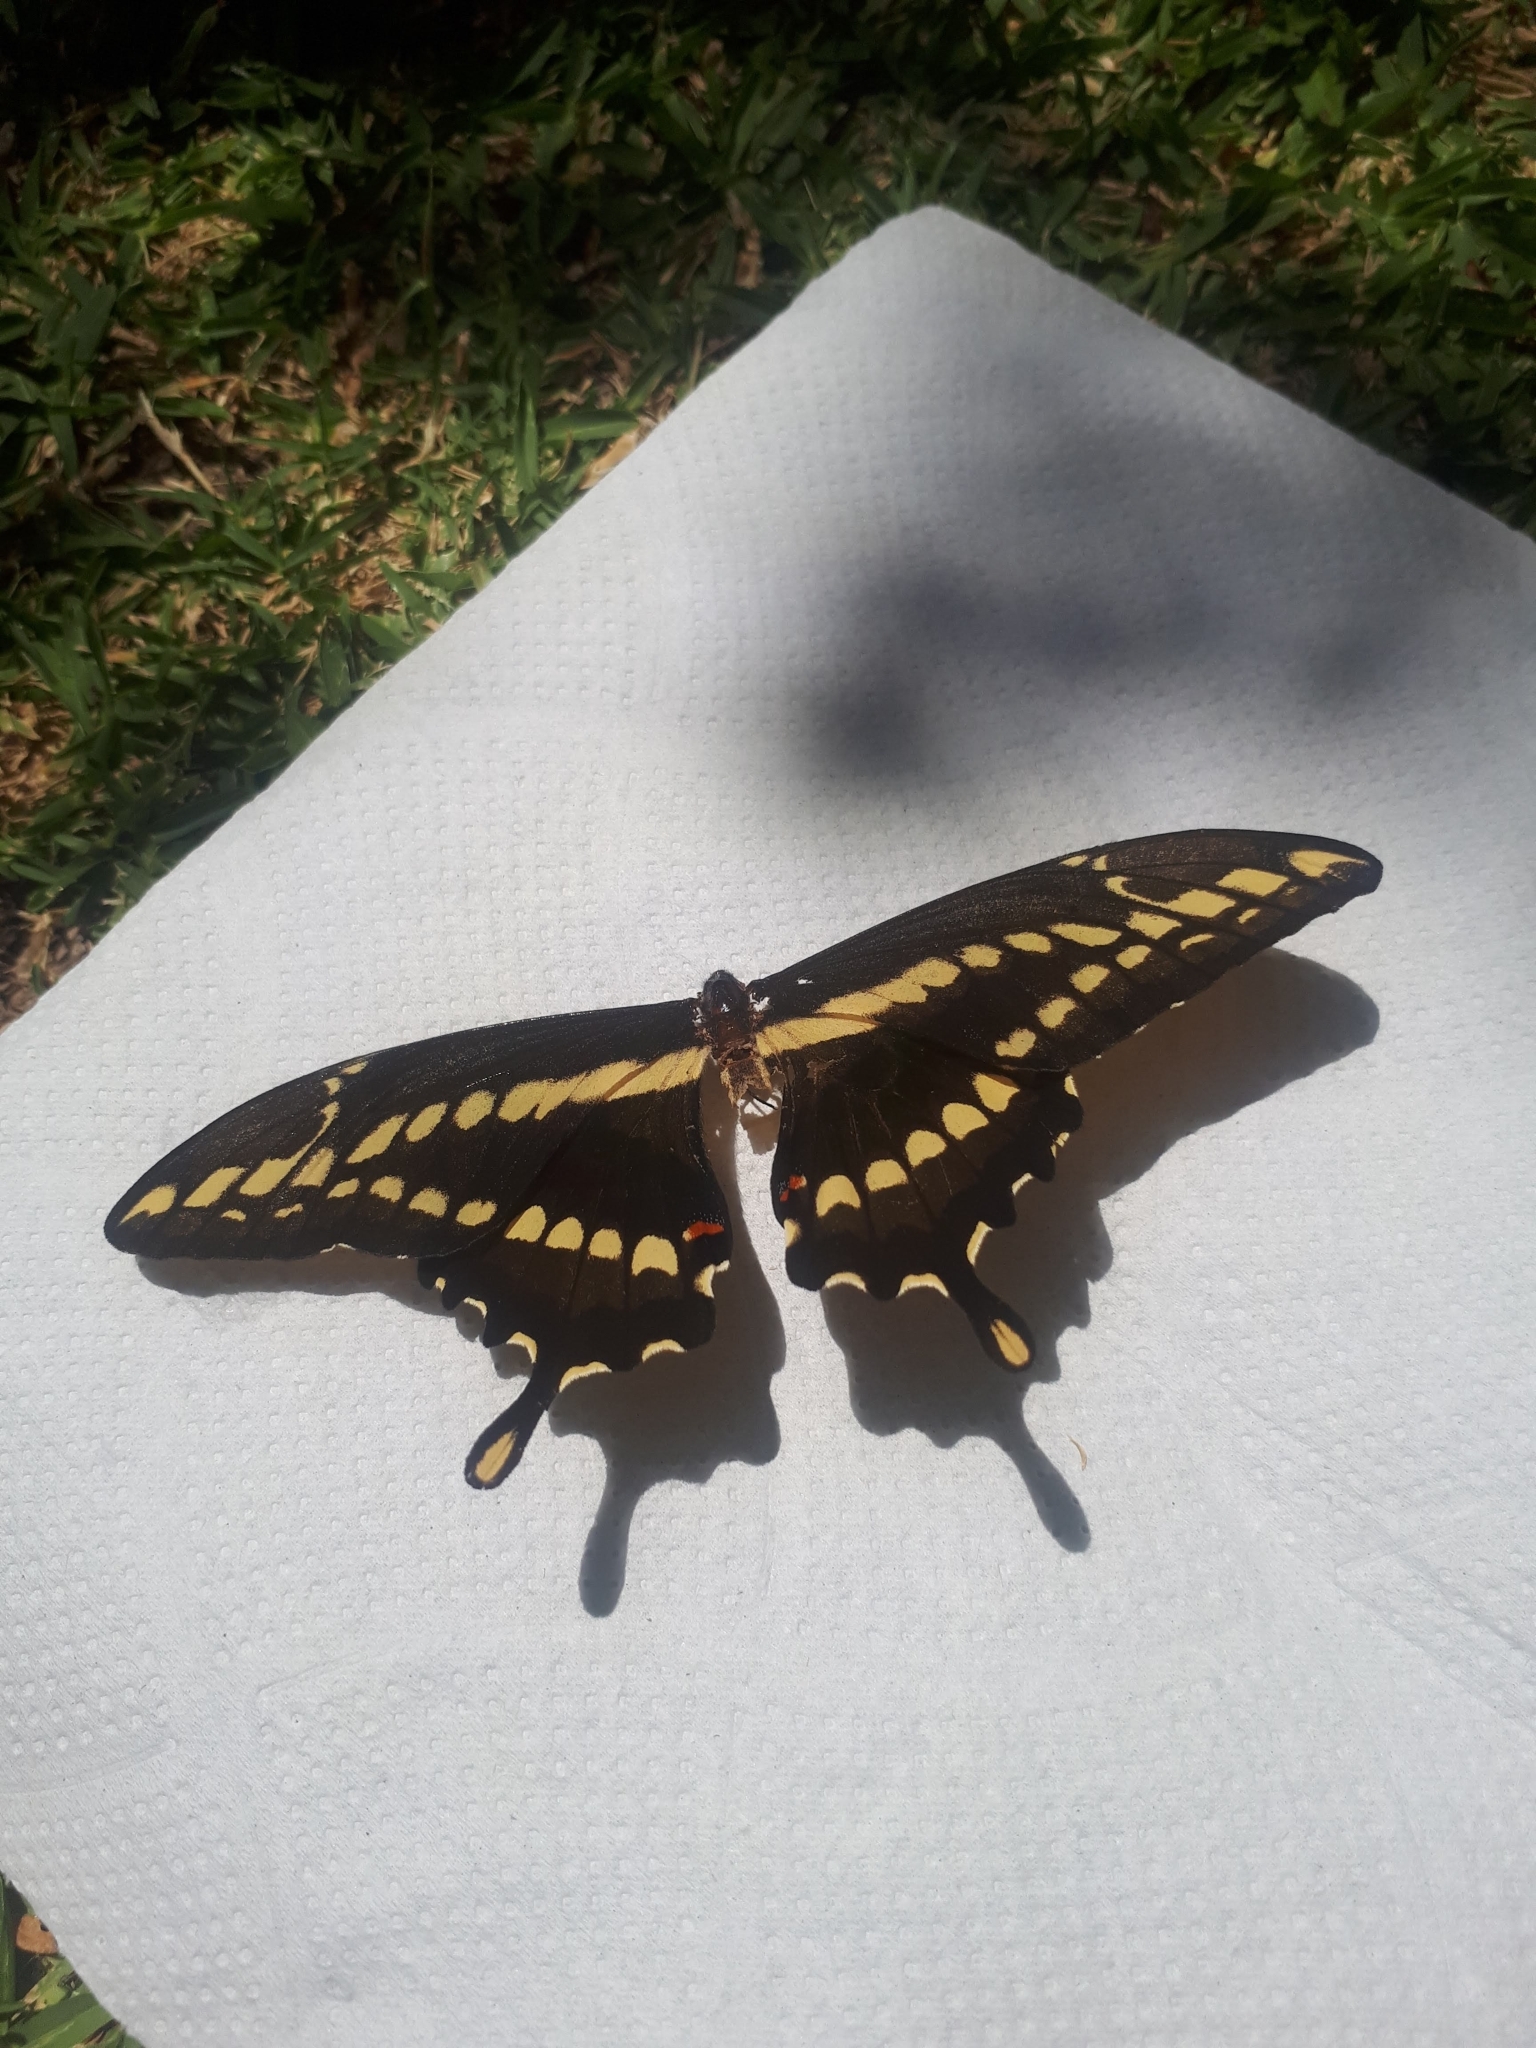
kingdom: Animalia
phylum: Arthropoda
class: Insecta
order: Lepidoptera
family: Papilionidae
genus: Papilio
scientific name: Papilio thoas
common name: King swallowtail
